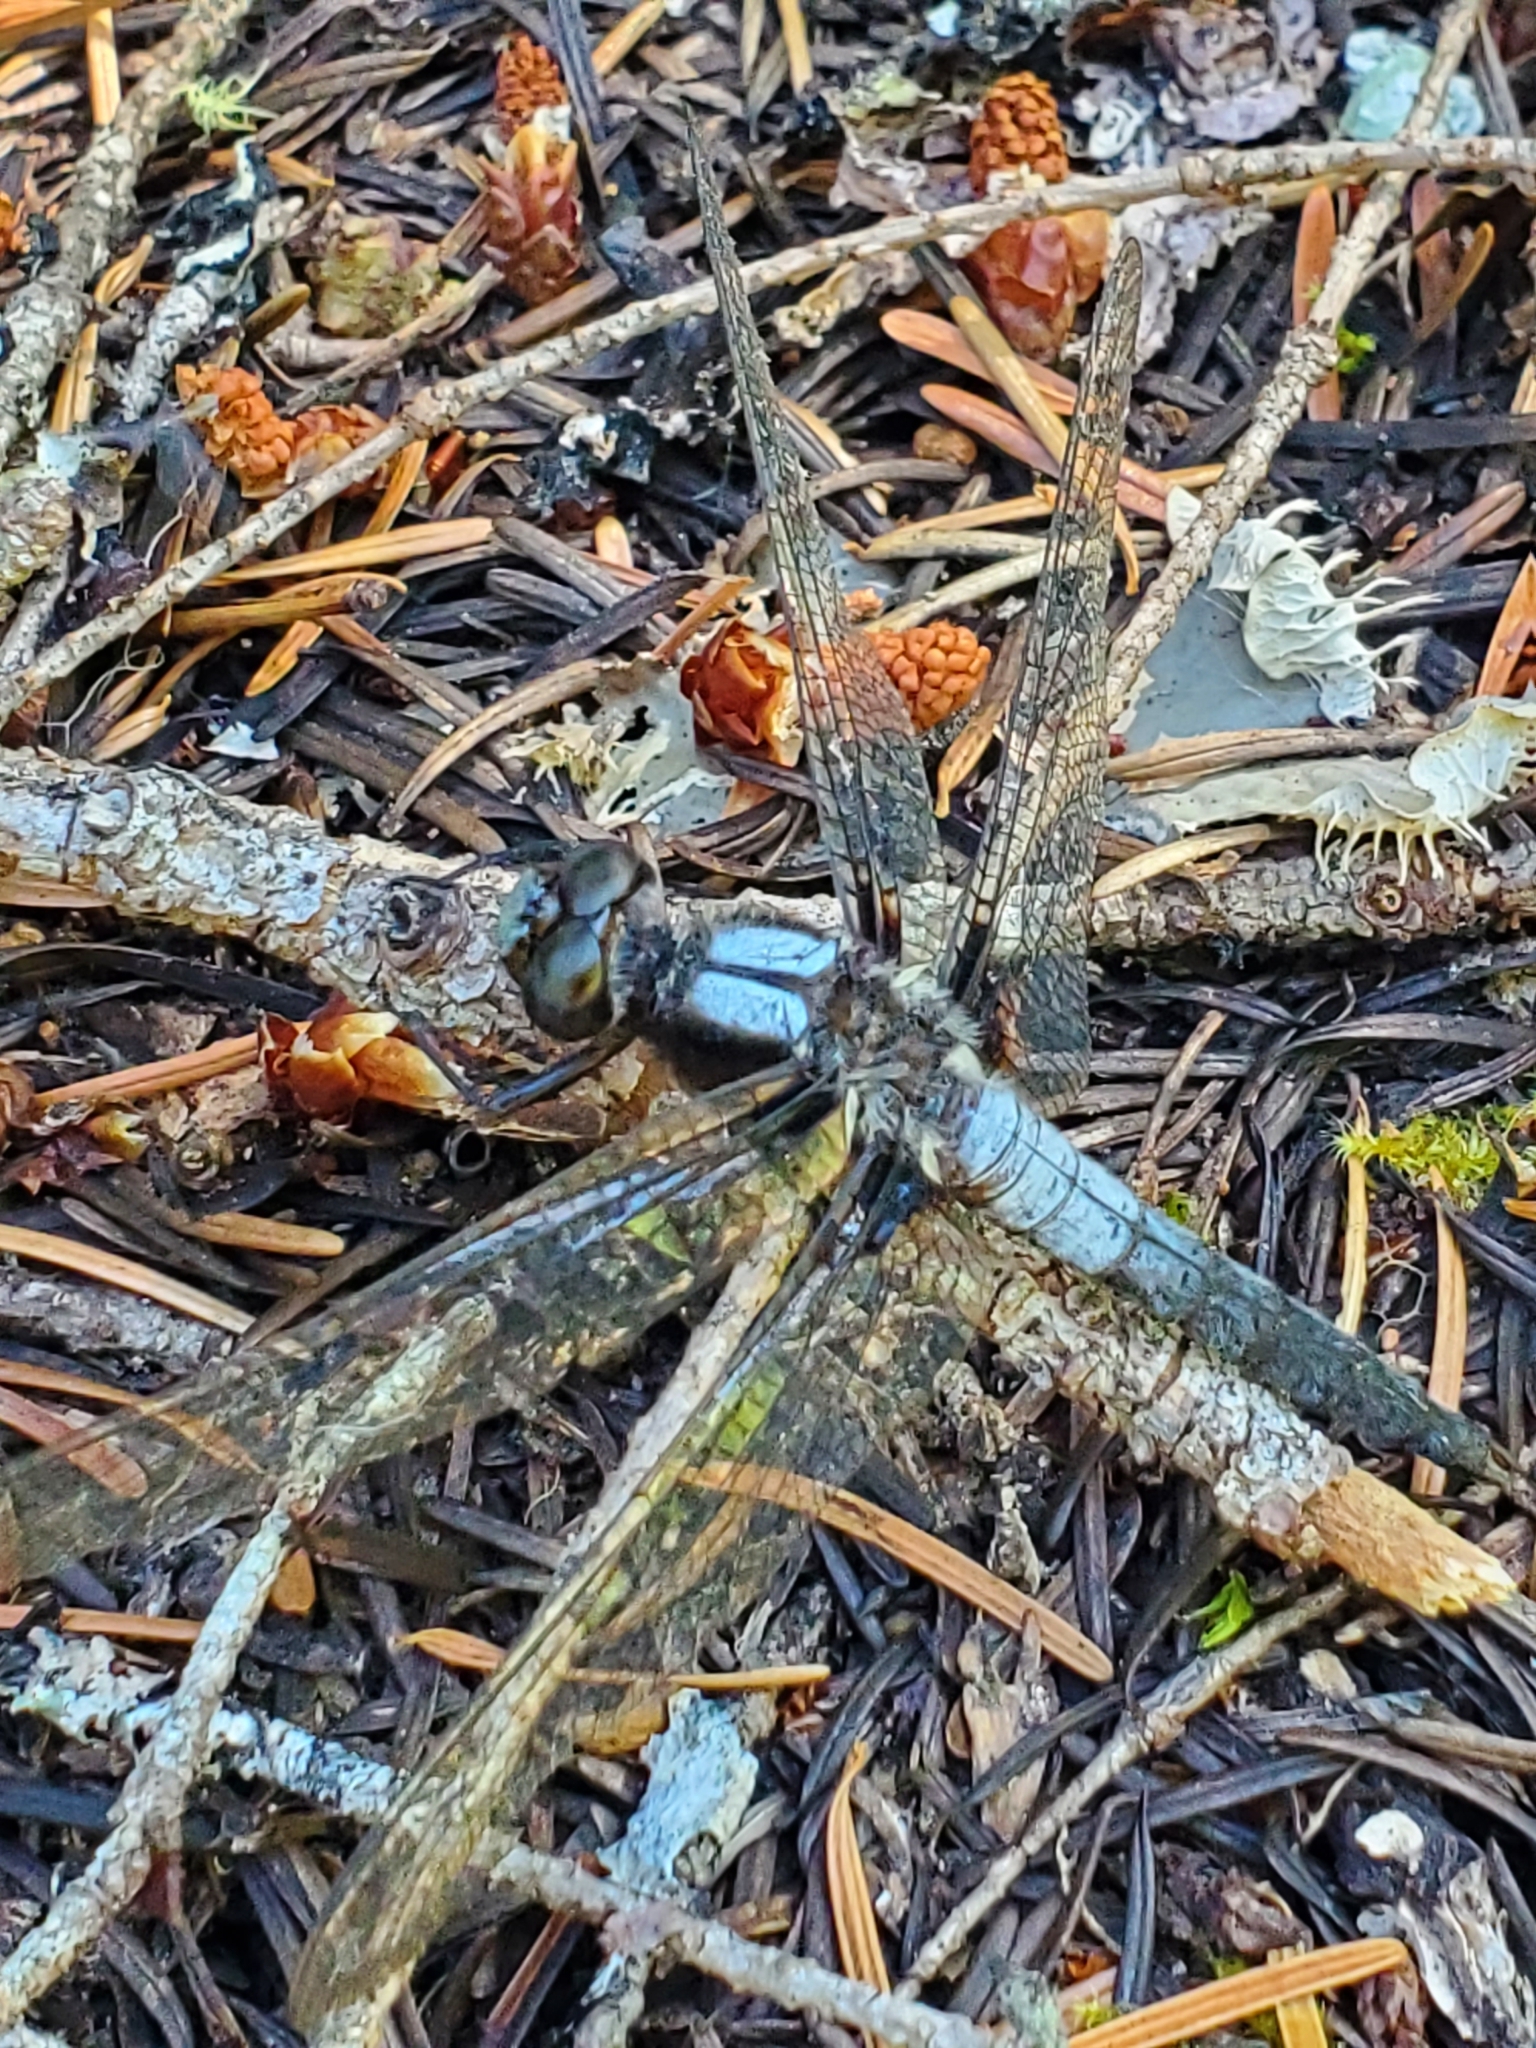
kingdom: Animalia
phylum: Arthropoda
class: Insecta
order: Odonata
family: Libellulidae
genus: Ladona
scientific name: Ladona julia
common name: Chalk-fronted corporal
